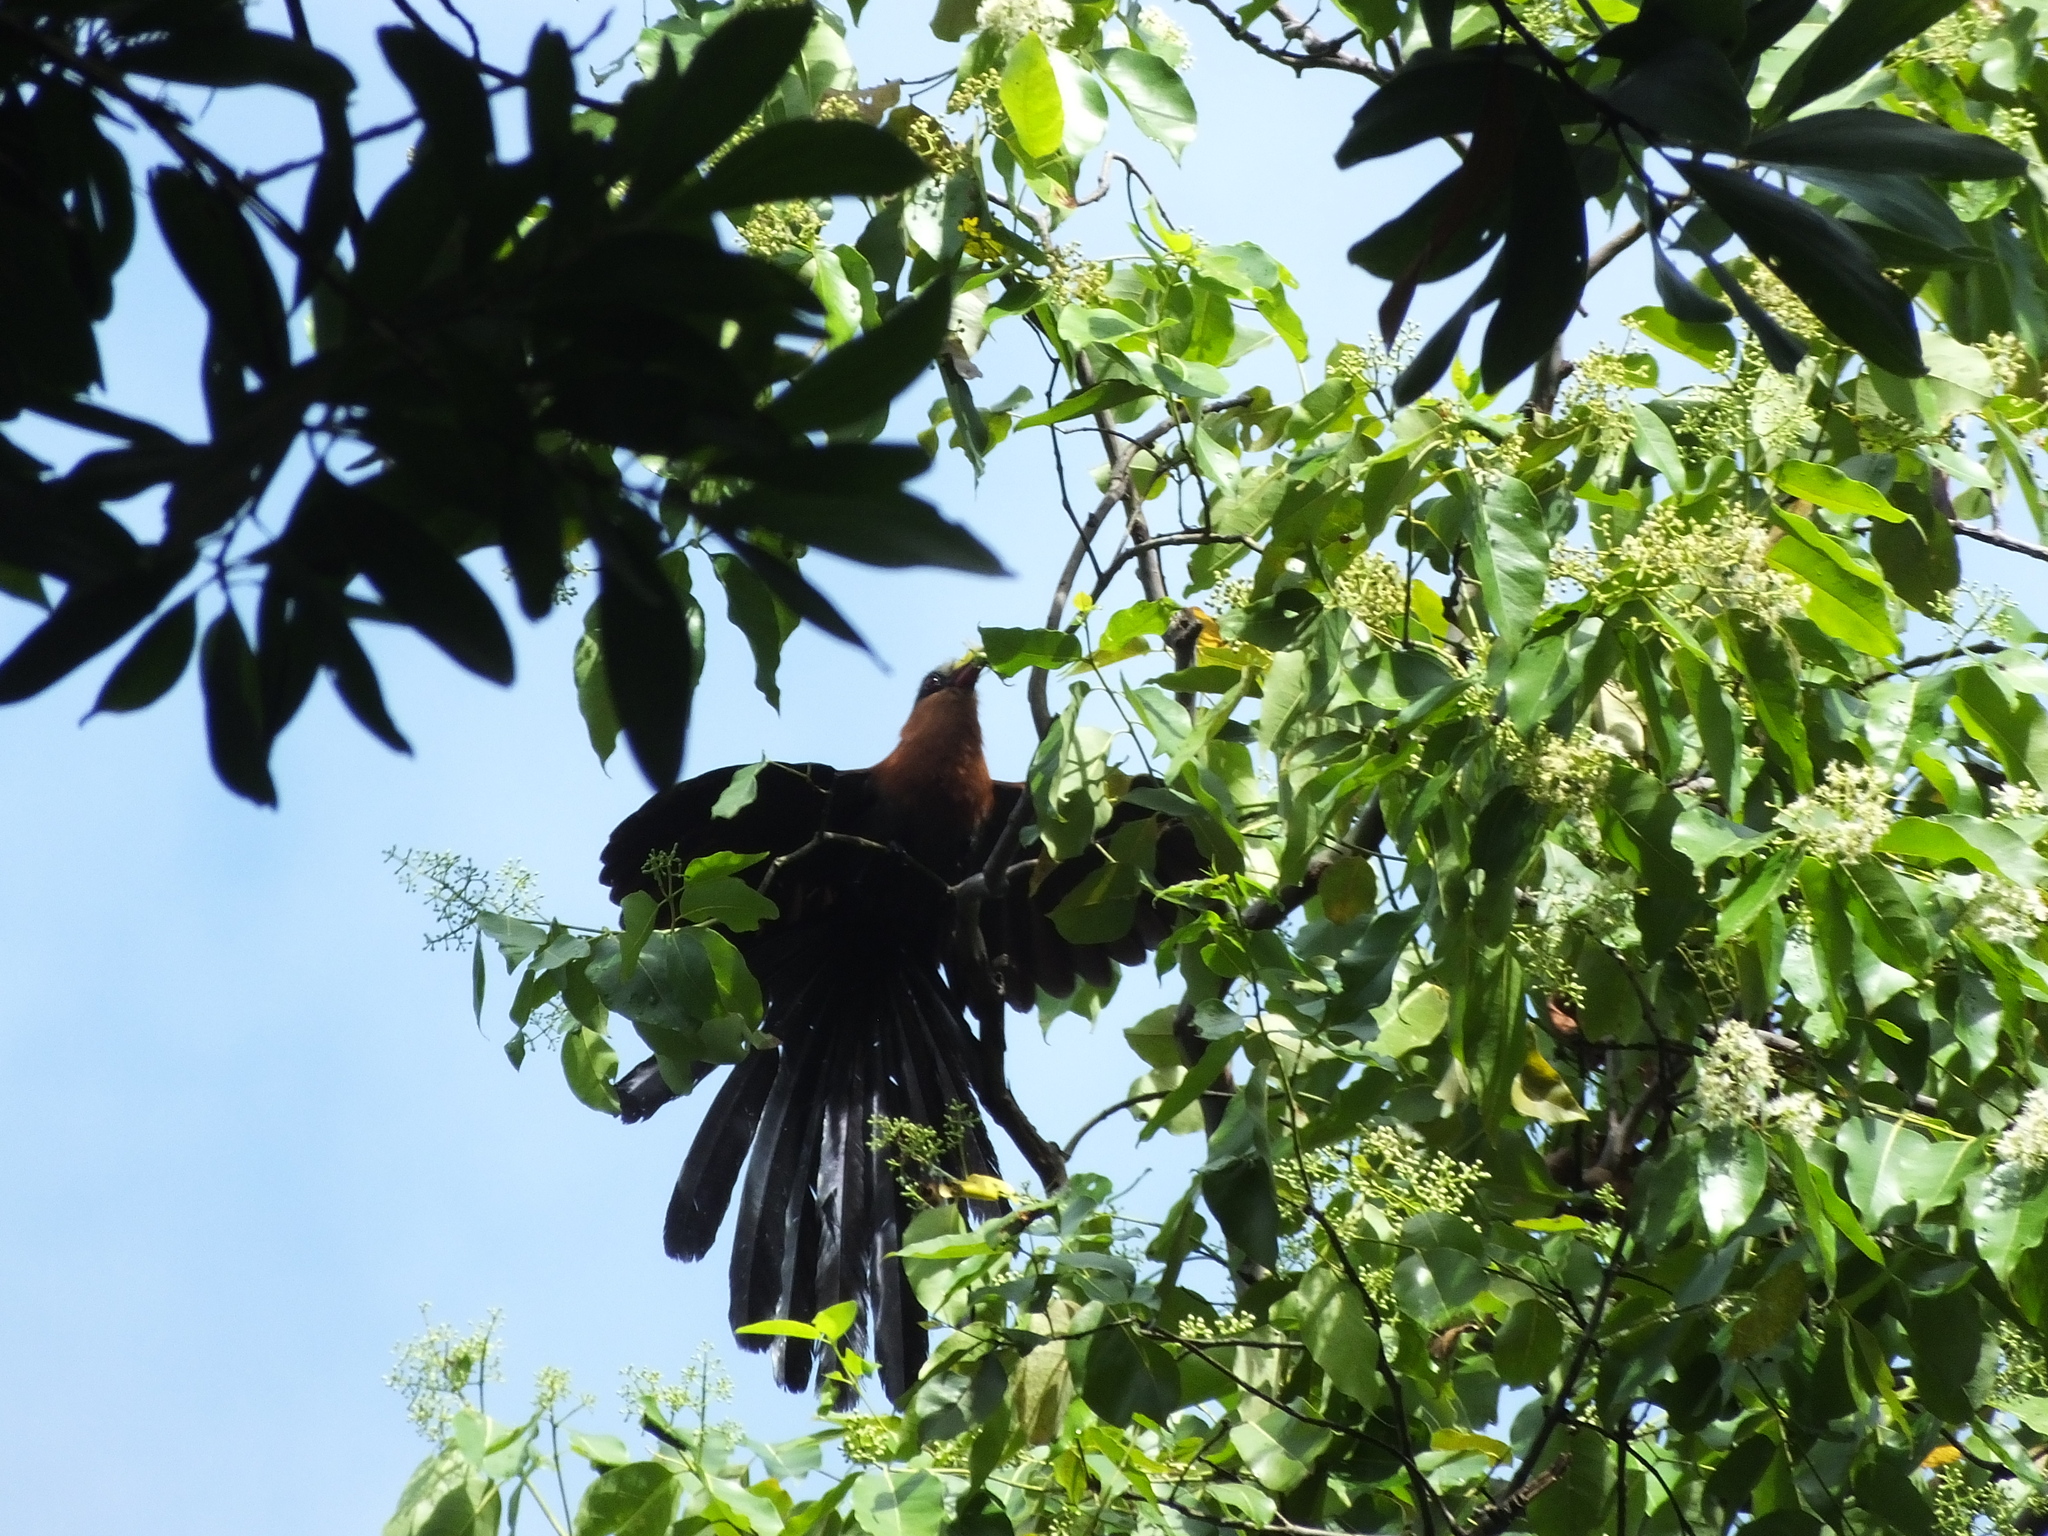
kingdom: Animalia
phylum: Chordata
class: Aves
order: Cuculiformes
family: Cuculidae
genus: Zanclostomus
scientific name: Zanclostomus calyorhynchus
